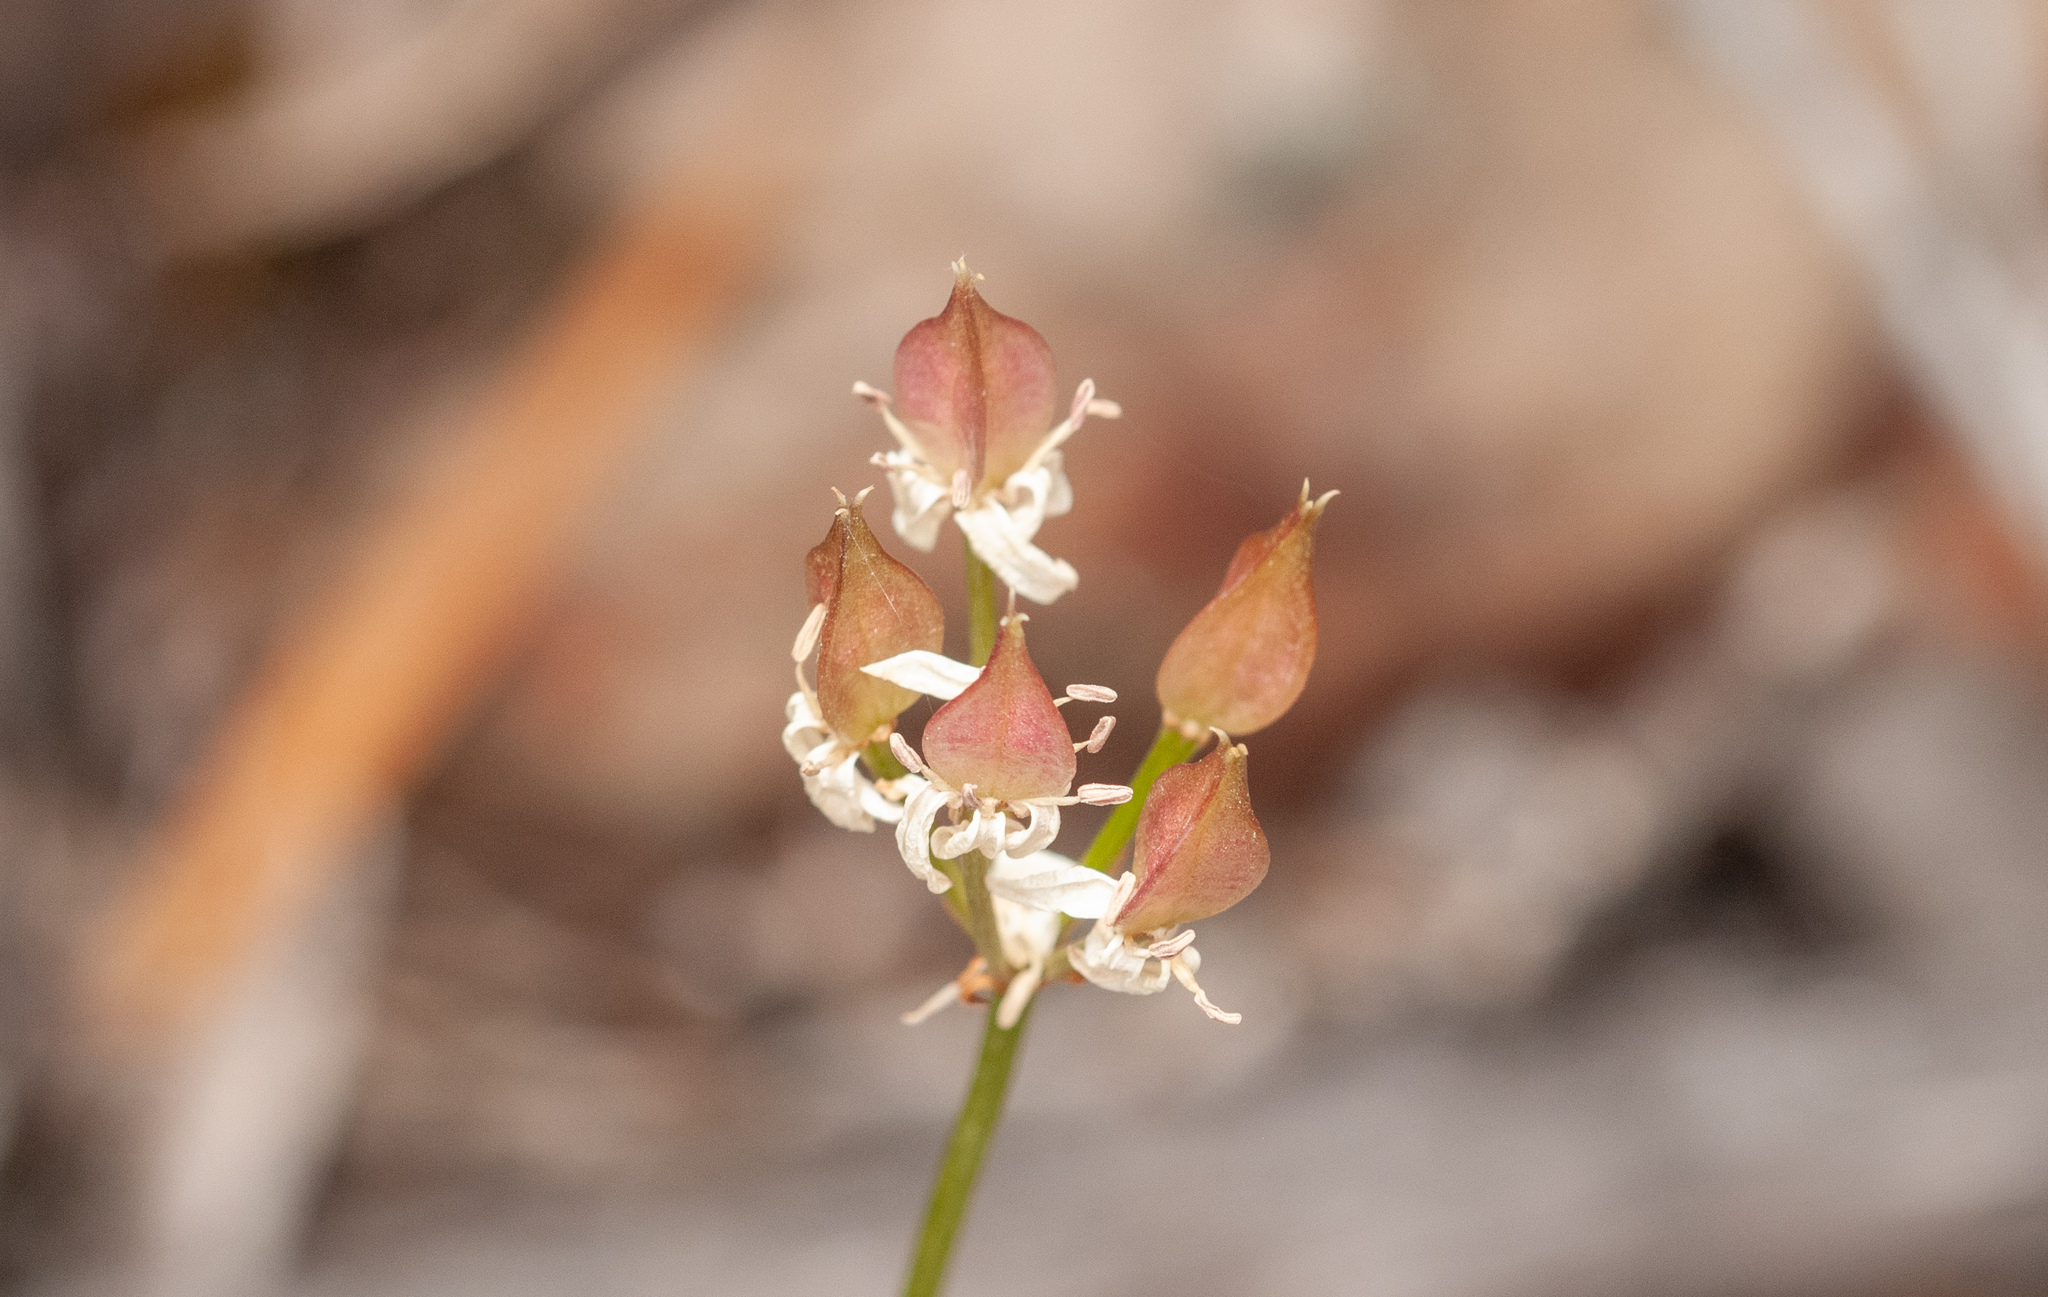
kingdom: Plantae
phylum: Tracheophyta
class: Liliopsida
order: Liliales
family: Colchicaceae
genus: Burchardia
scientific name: Burchardia umbellata
